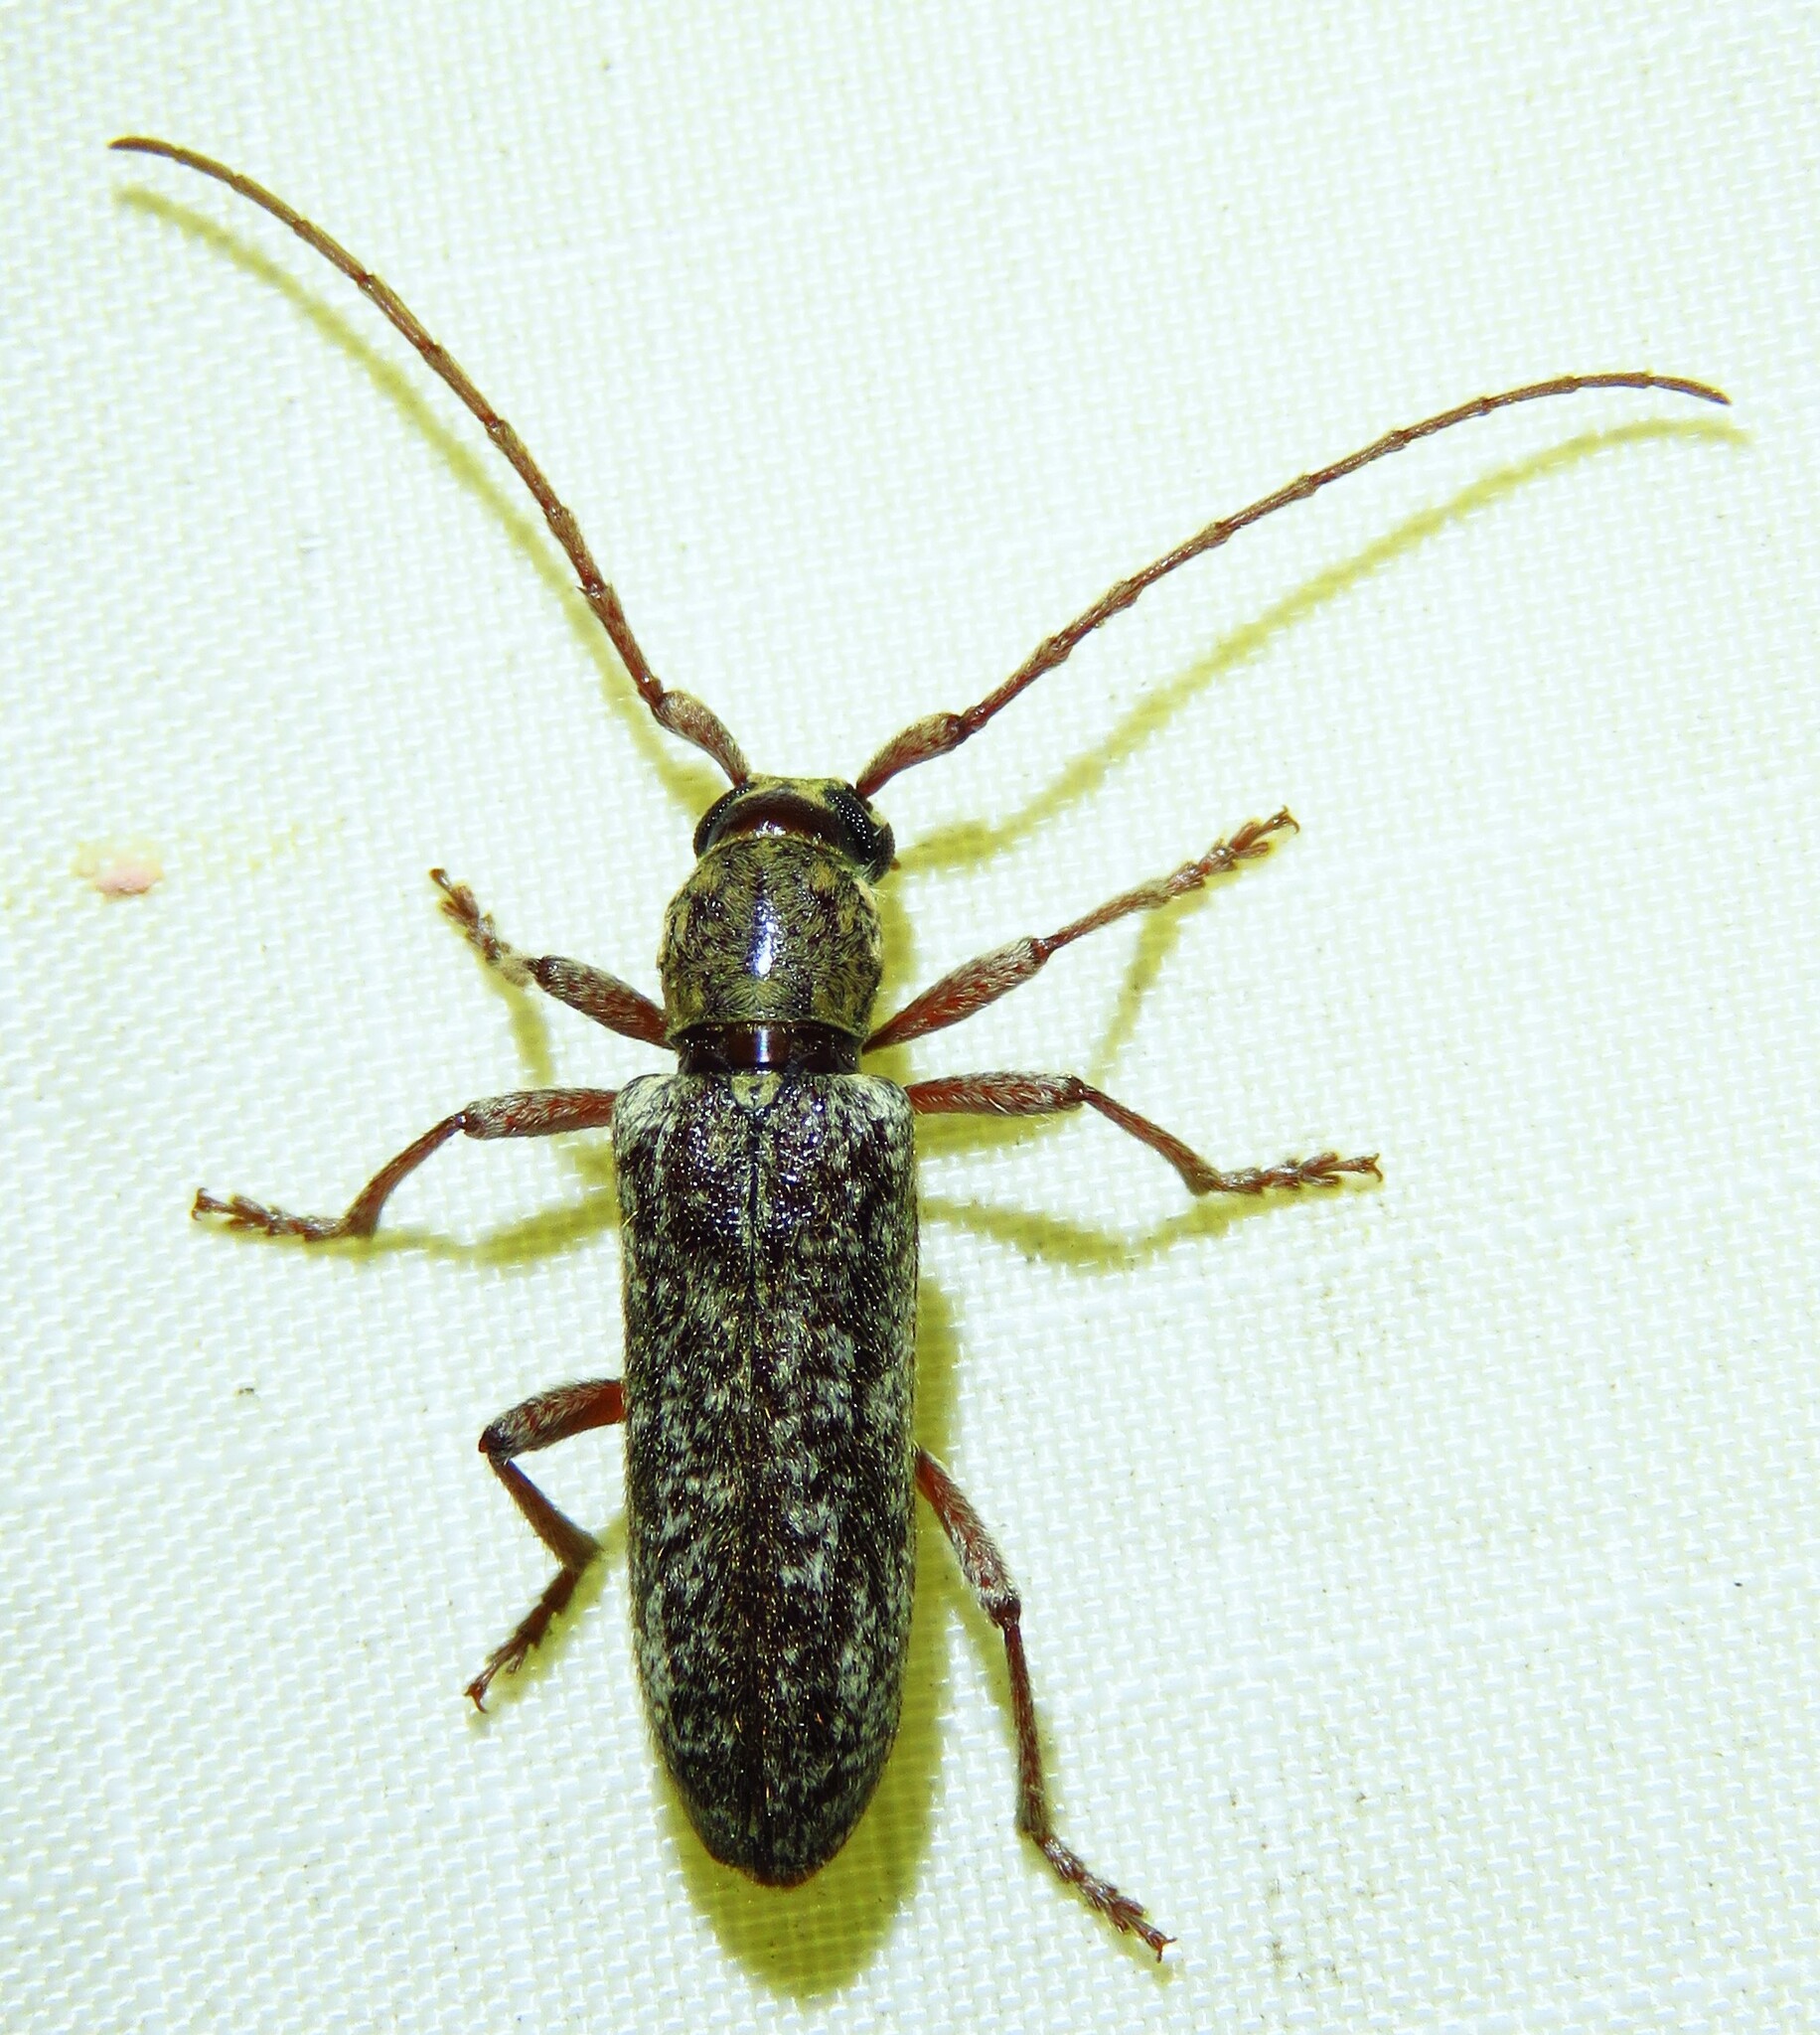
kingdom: Animalia
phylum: Arthropoda
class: Insecta
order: Coleoptera
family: Cerambycidae
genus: Anelaphus
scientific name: Anelaphus debilis
